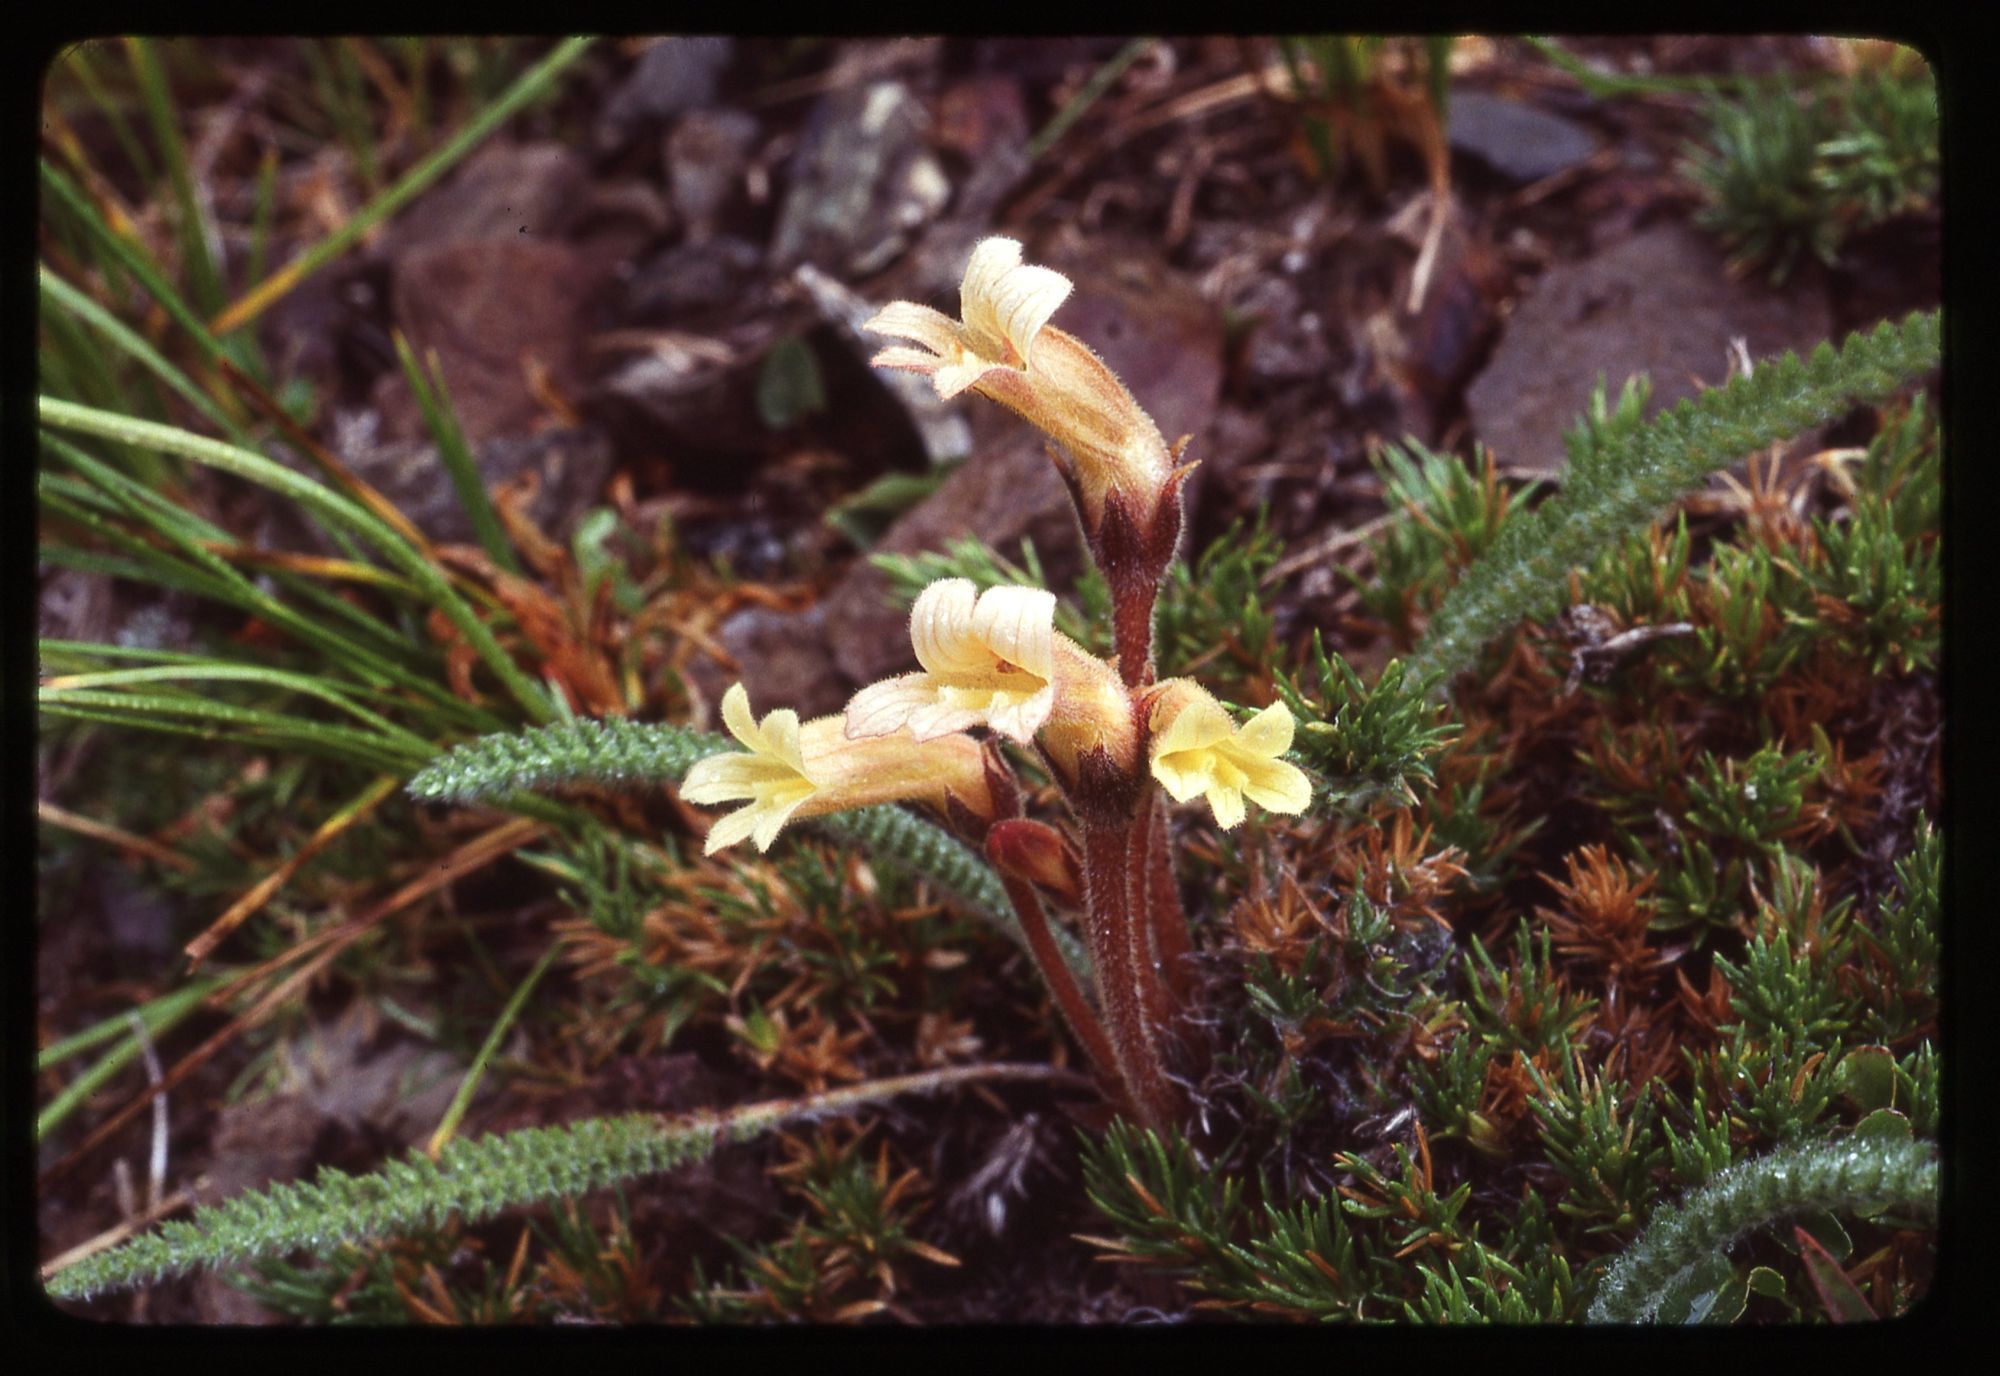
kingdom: Plantae
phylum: Tracheophyta
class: Magnoliopsida
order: Lamiales
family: Orobanchaceae
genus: Aphyllon
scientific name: Aphyllon franciscanum
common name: San francisco broomrape
